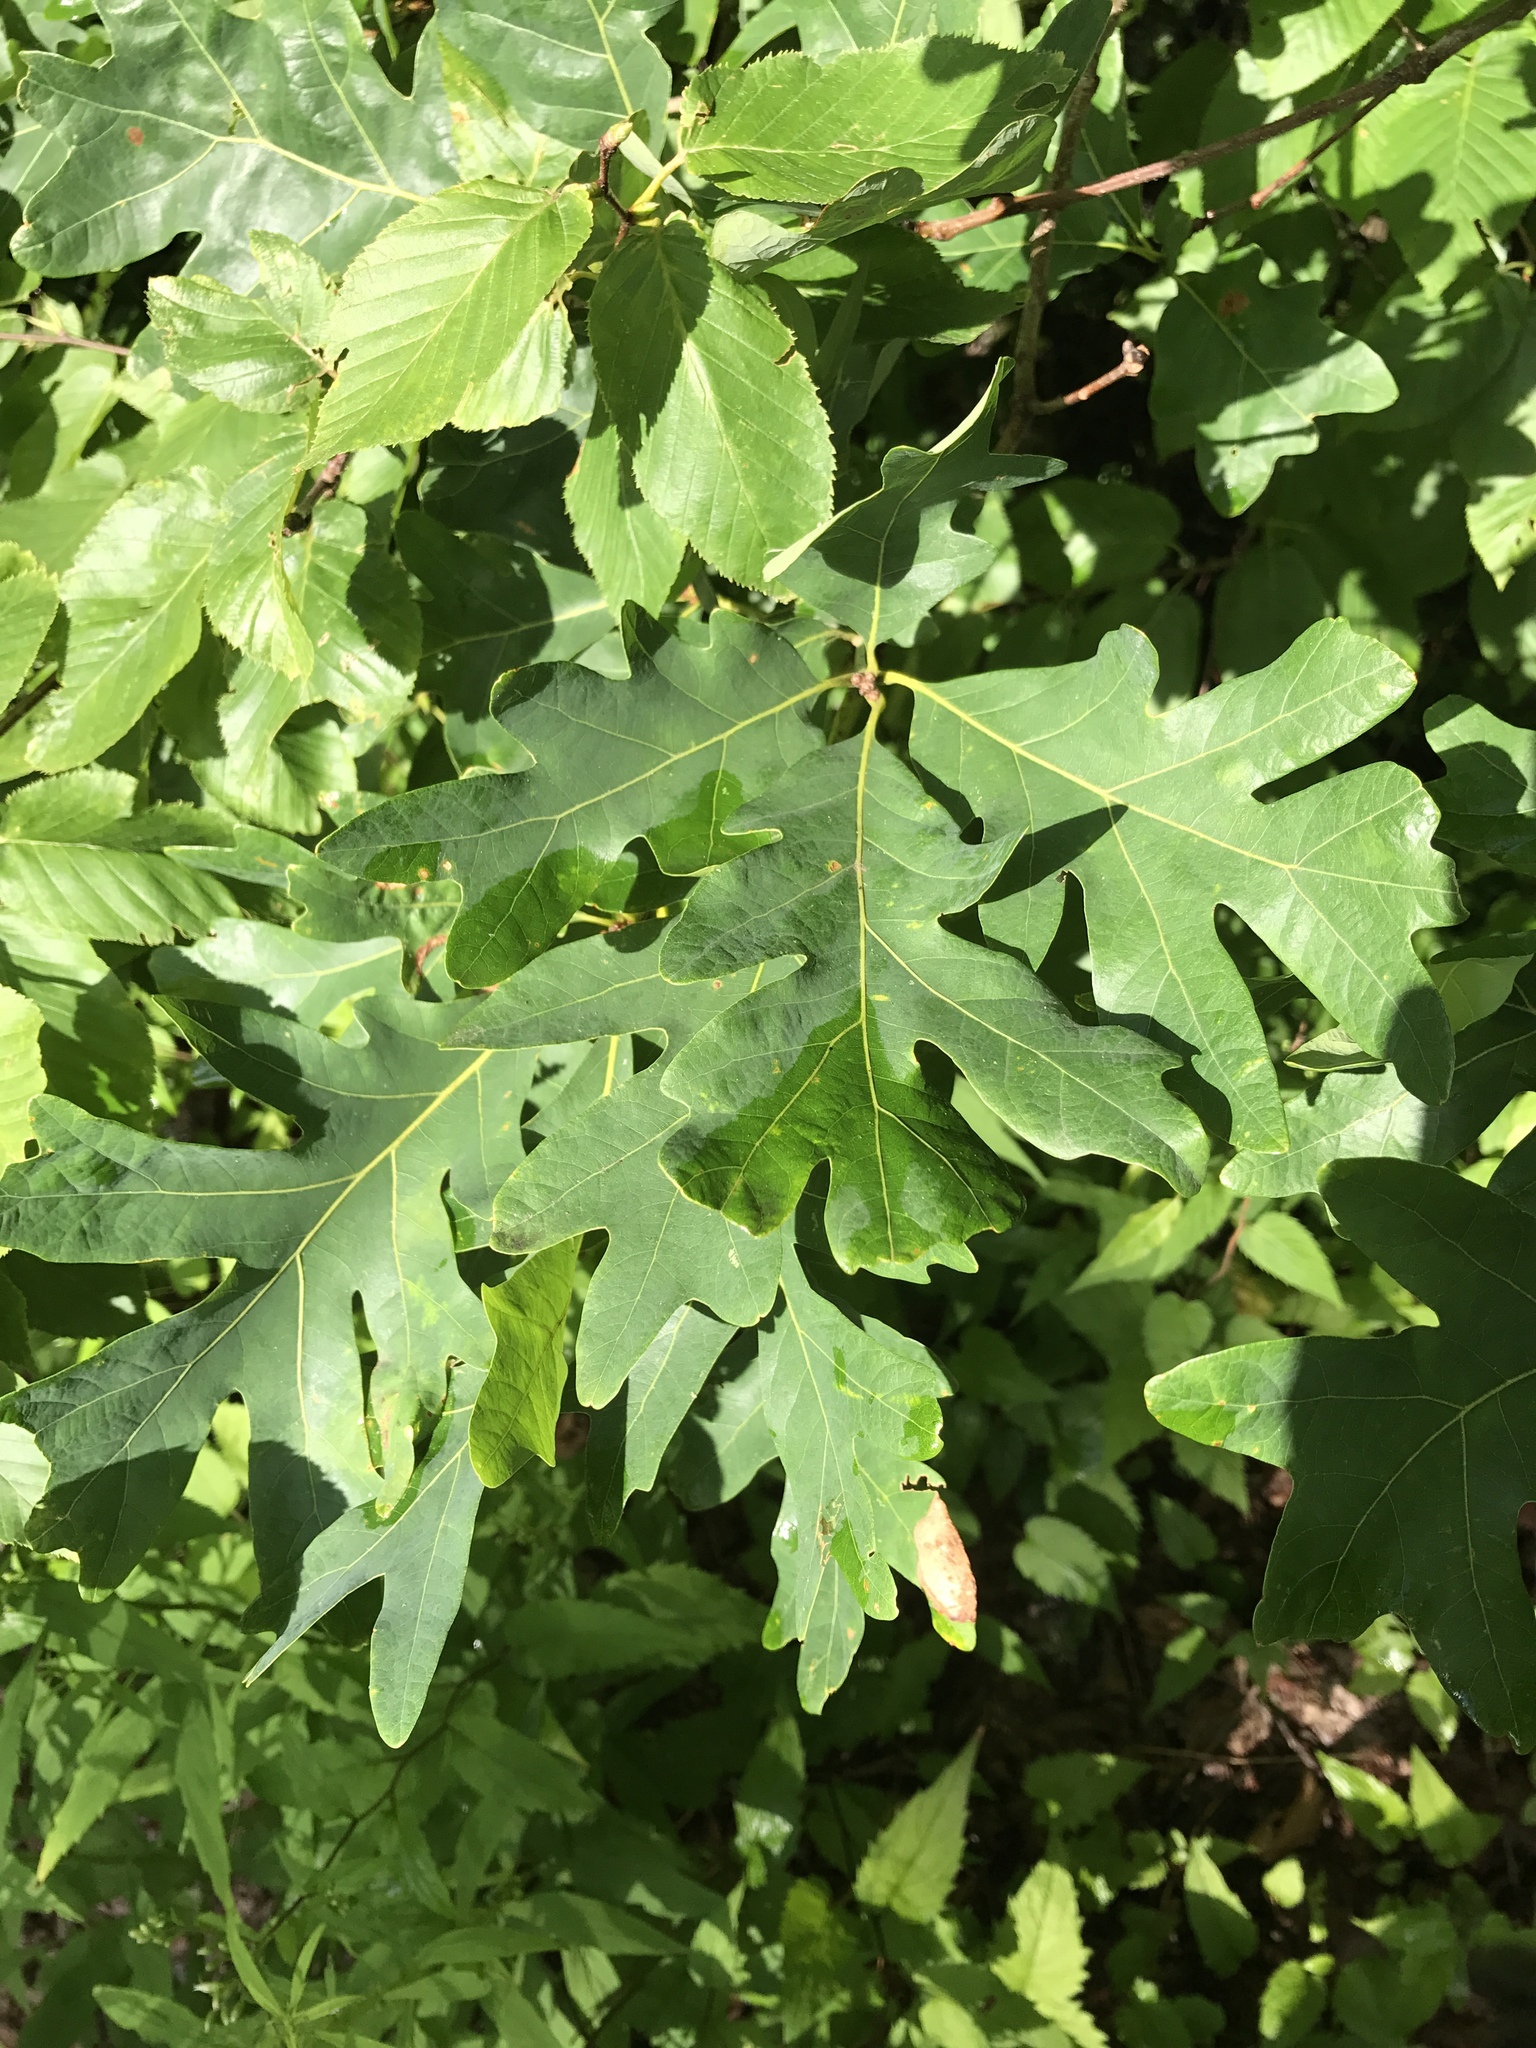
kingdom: Plantae
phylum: Tracheophyta
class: Magnoliopsida
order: Fagales
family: Fagaceae
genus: Quercus
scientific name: Quercus alba
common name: White oak
